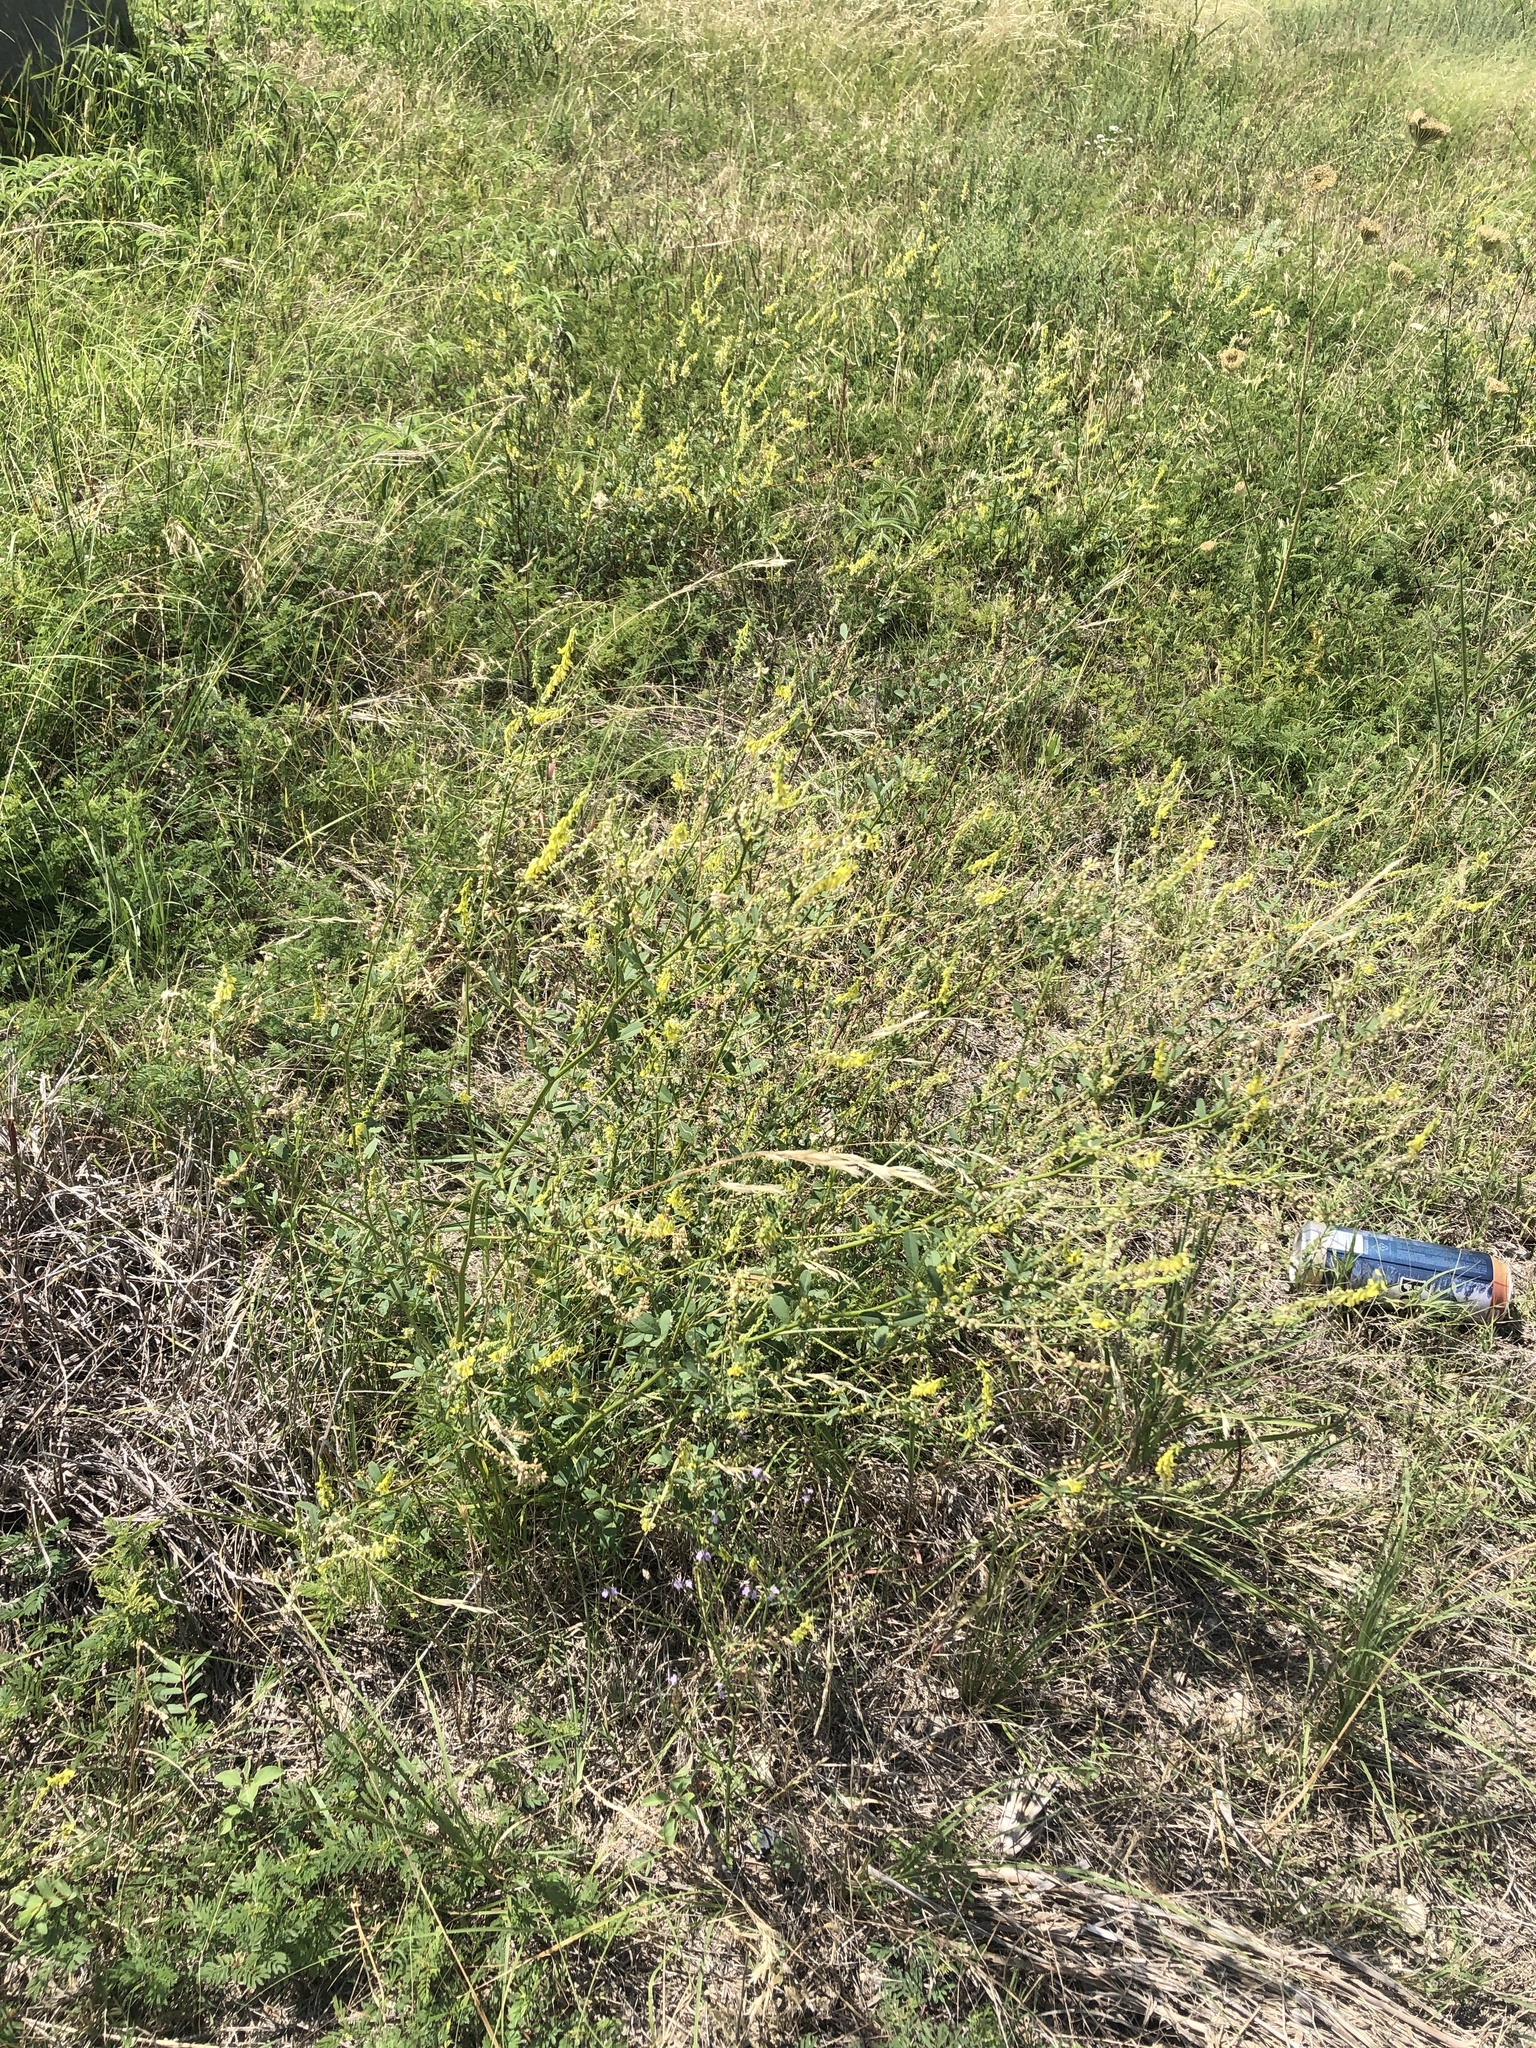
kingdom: Plantae
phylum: Tracheophyta
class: Magnoliopsida
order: Fabales
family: Fabaceae
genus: Melilotus
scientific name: Melilotus officinalis
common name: Sweetclover
